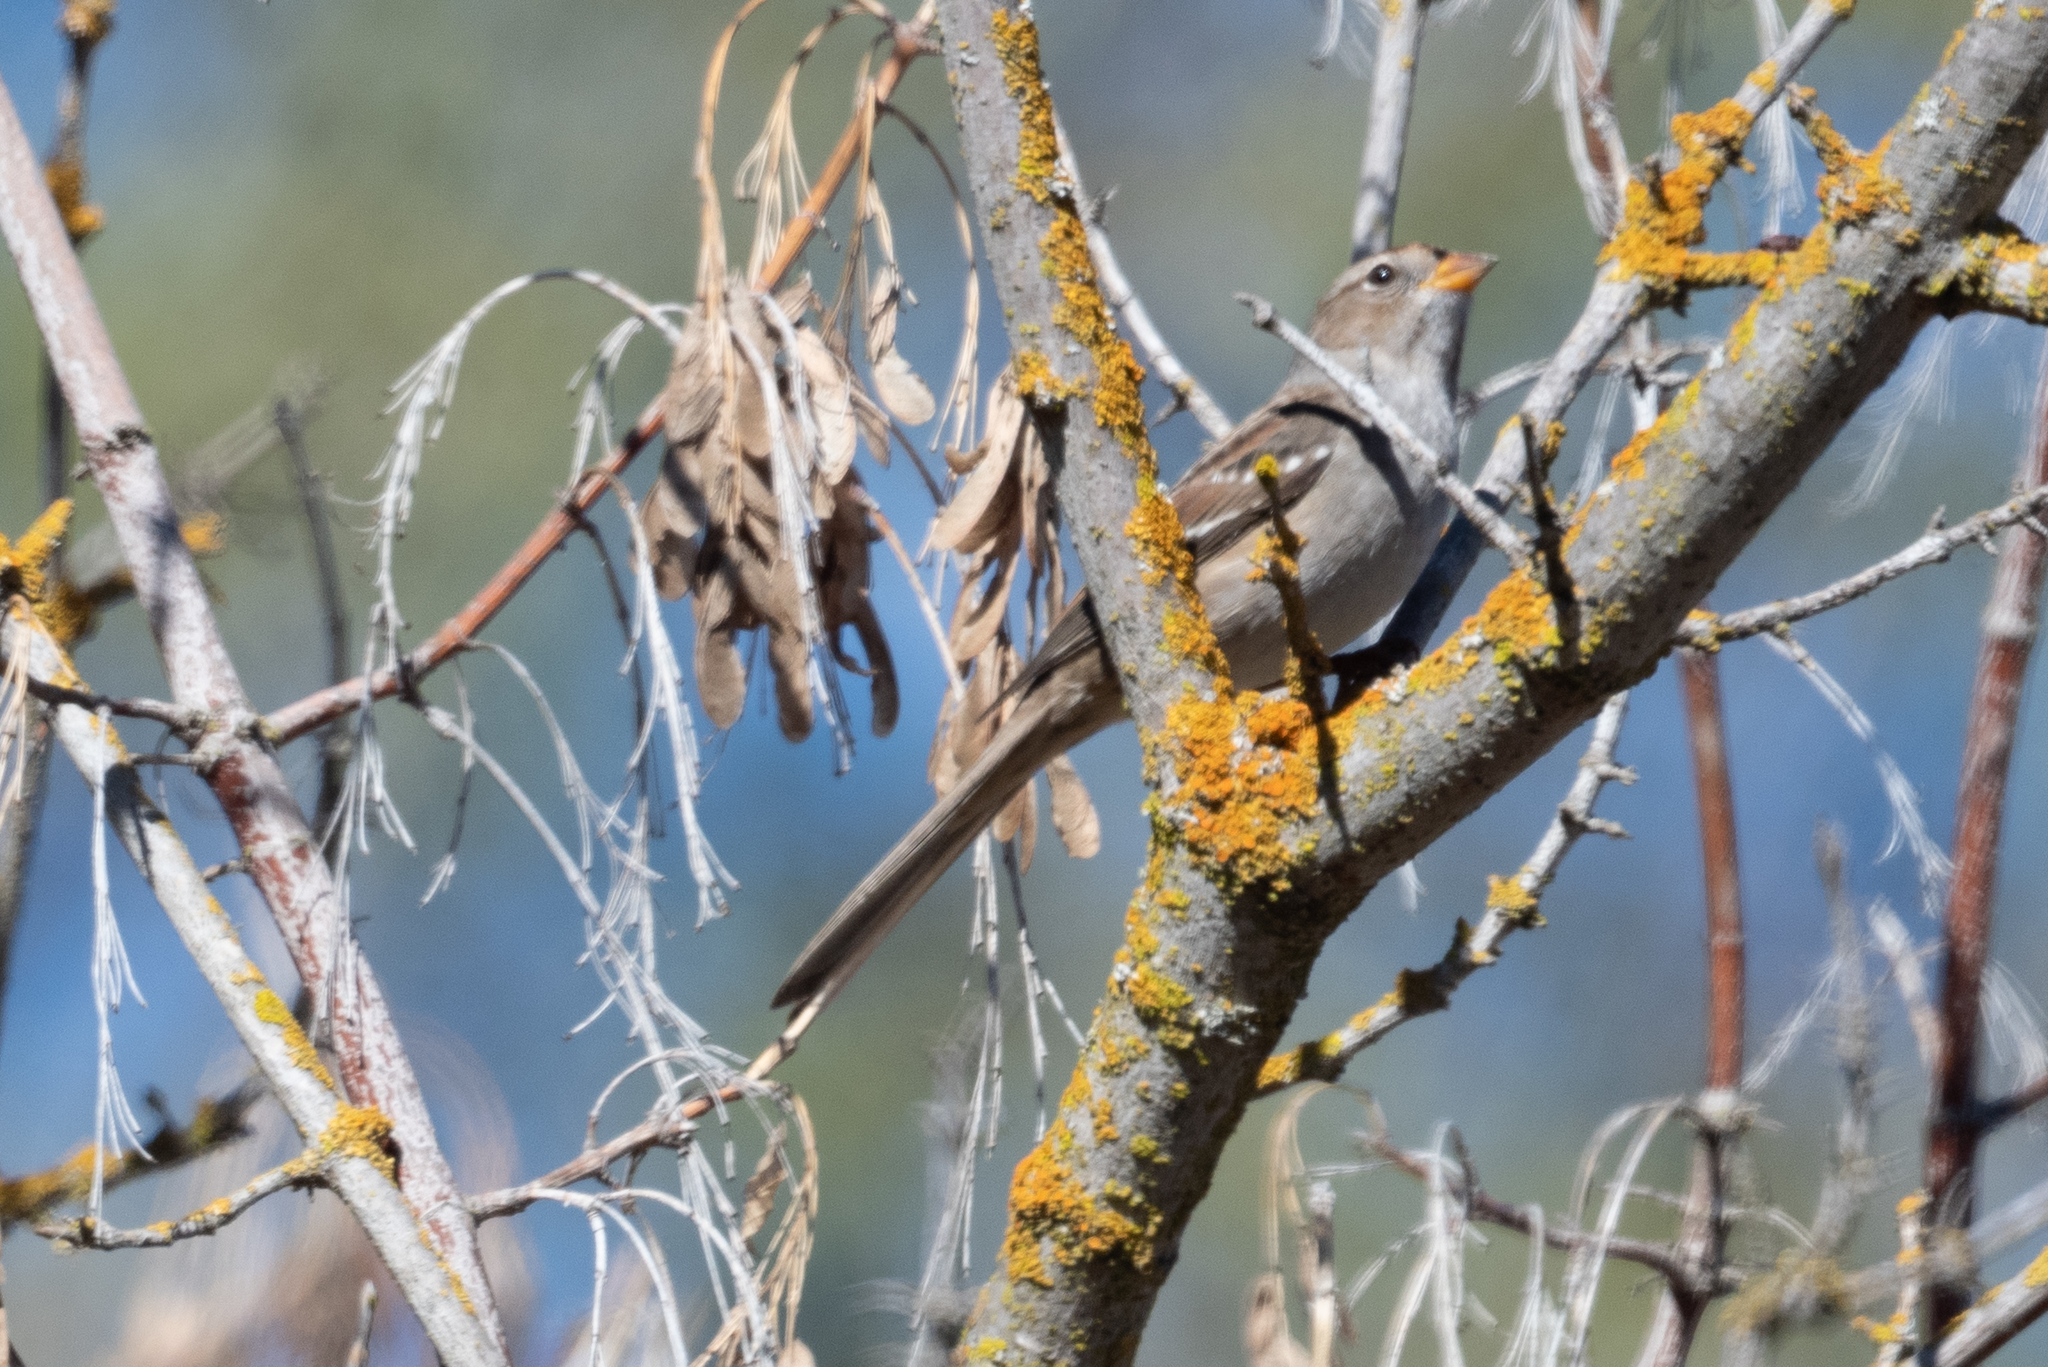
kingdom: Animalia
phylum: Chordata
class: Aves
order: Passeriformes
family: Passerellidae
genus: Zonotrichia
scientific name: Zonotrichia leucophrys
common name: White-crowned sparrow
